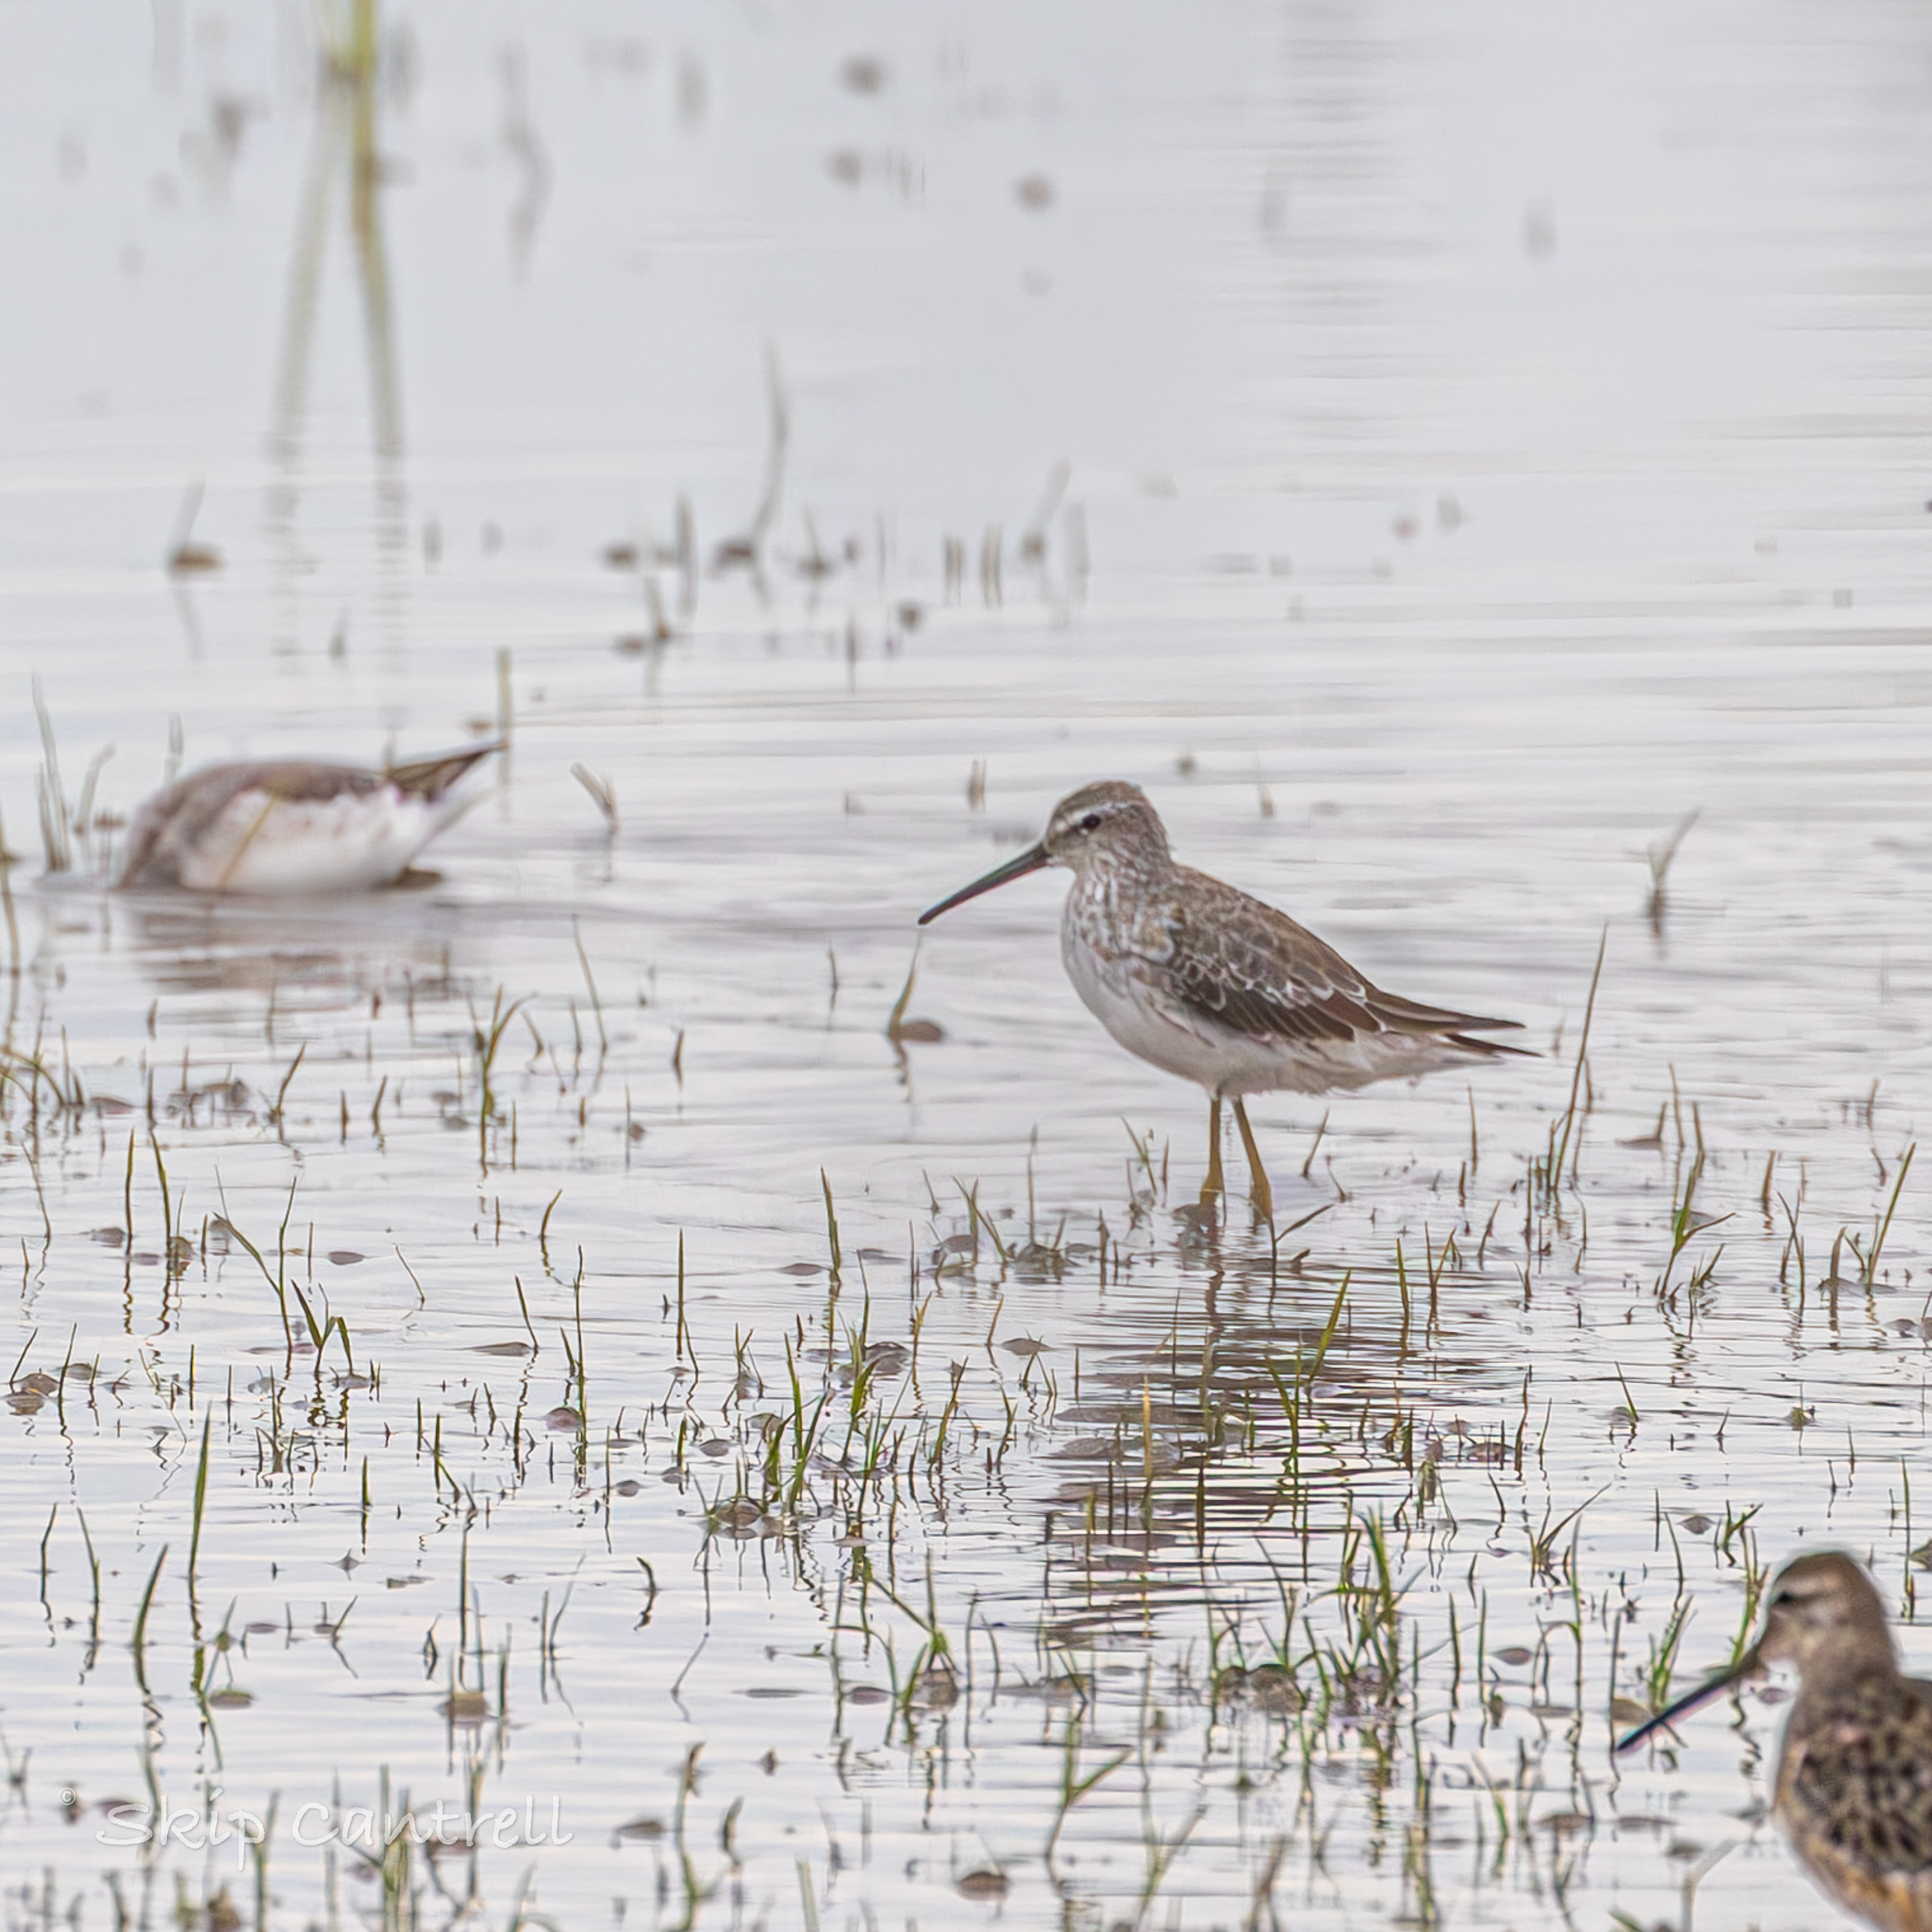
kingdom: Animalia
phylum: Chordata
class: Aves
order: Charadriiformes
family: Scolopacidae
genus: Calidris
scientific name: Calidris himantopus
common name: Stilt sandpiper
